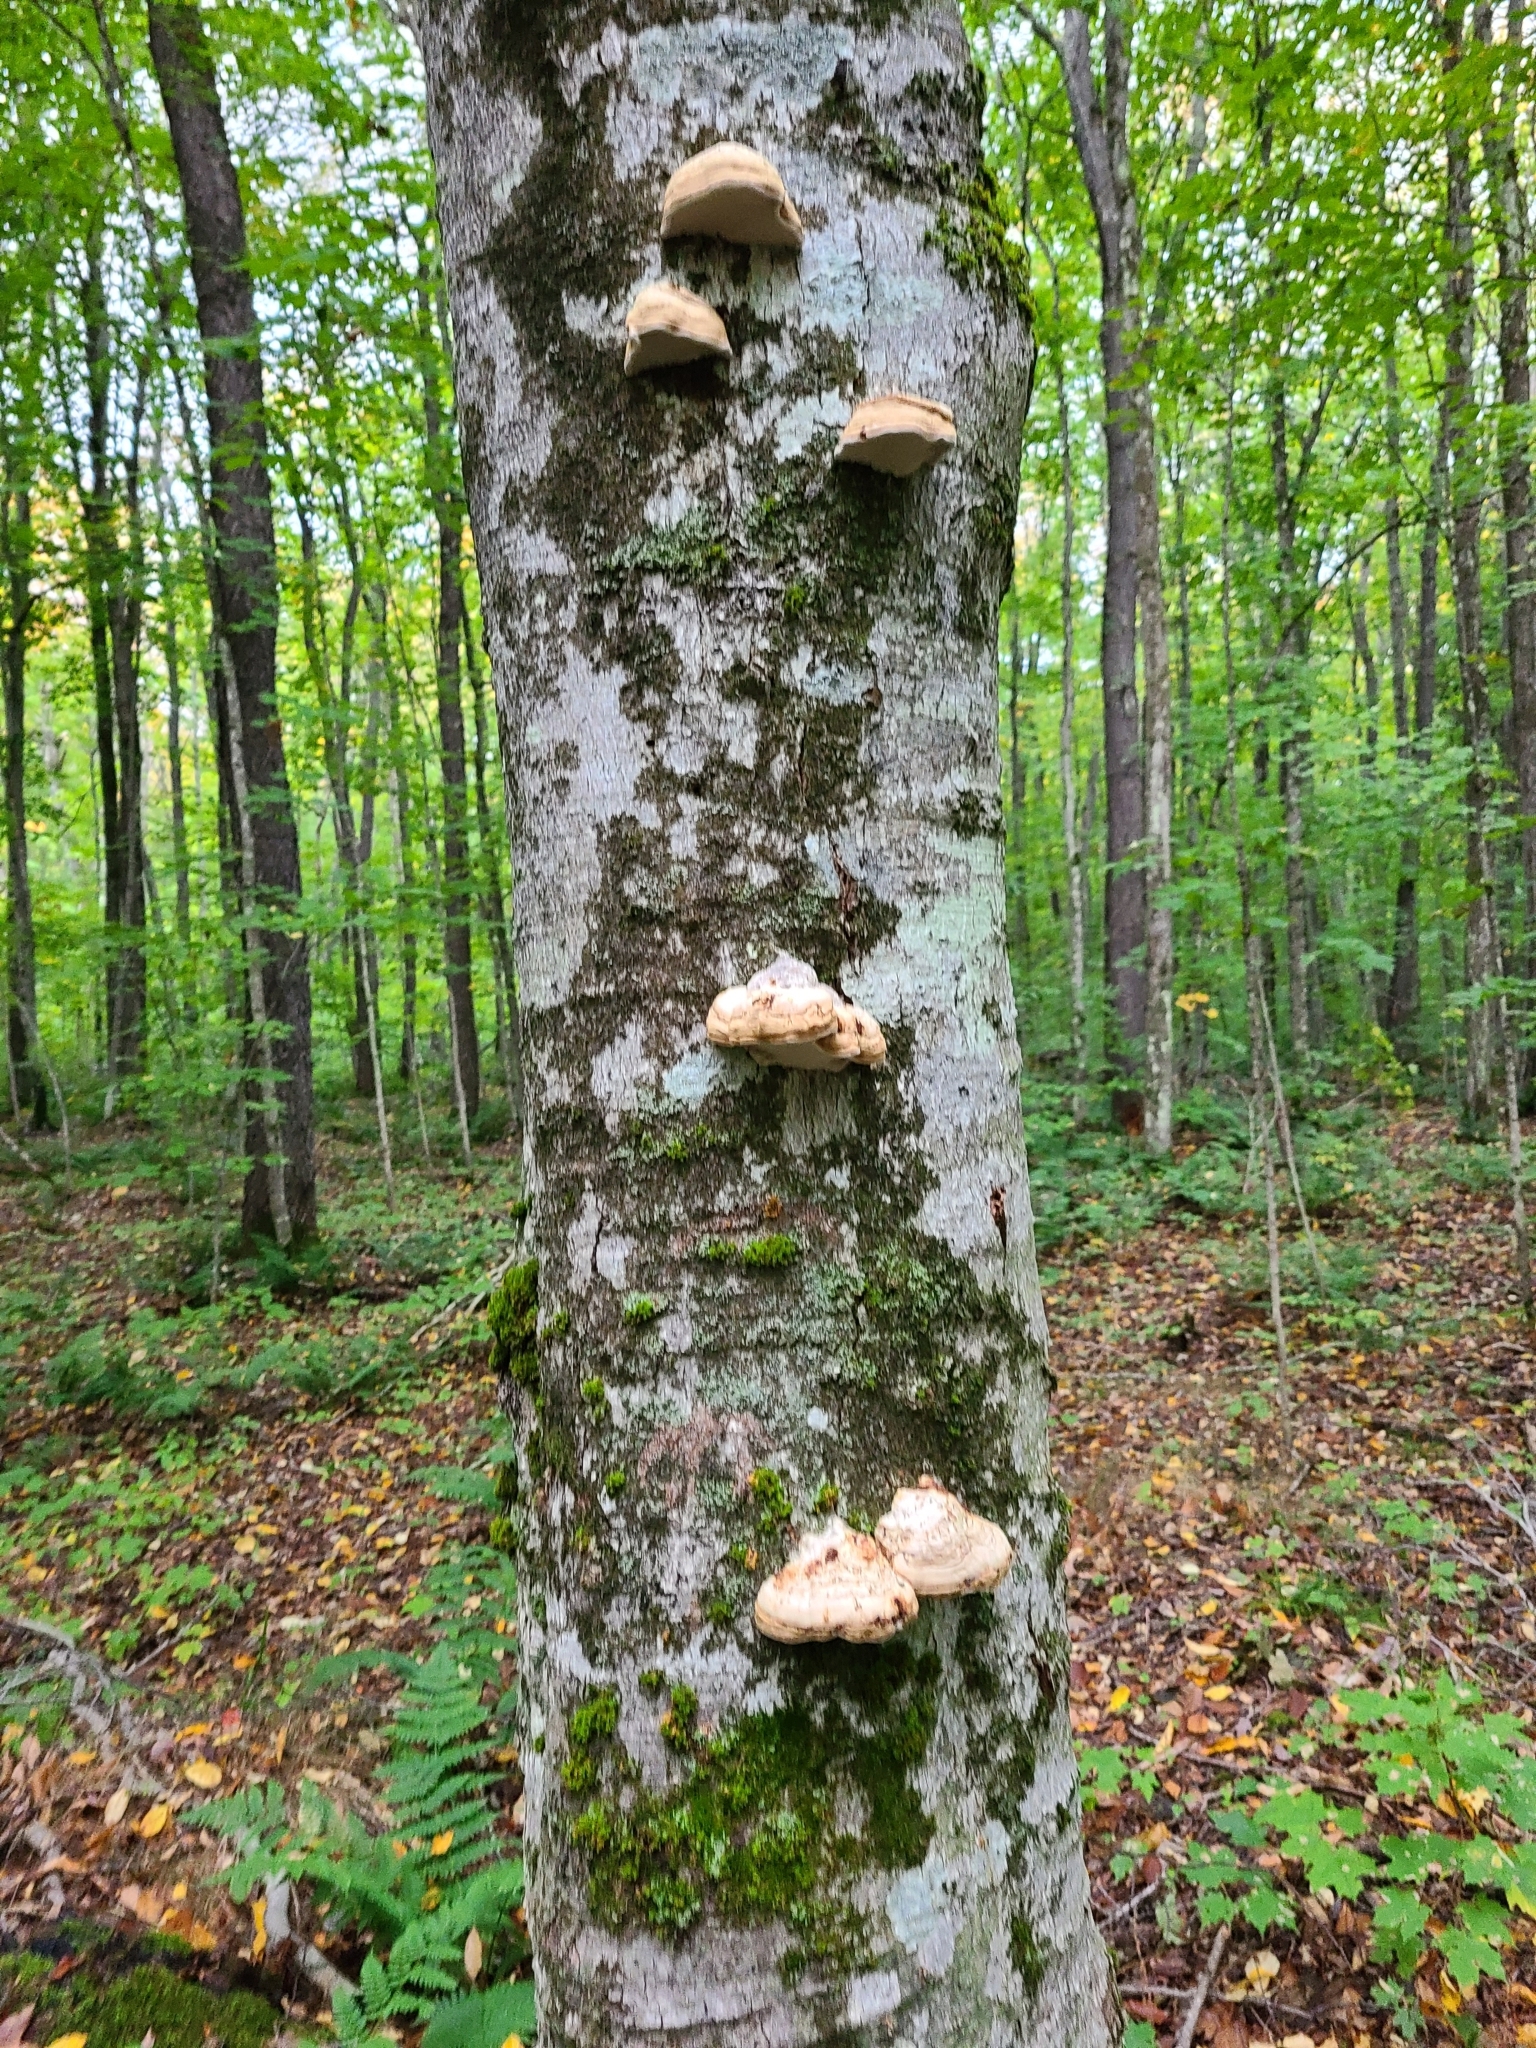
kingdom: Fungi
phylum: Basidiomycota
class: Agaricomycetes
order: Polyporales
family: Polyporaceae
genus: Fomes
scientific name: Fomes fomentarius
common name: Hoof fungus
